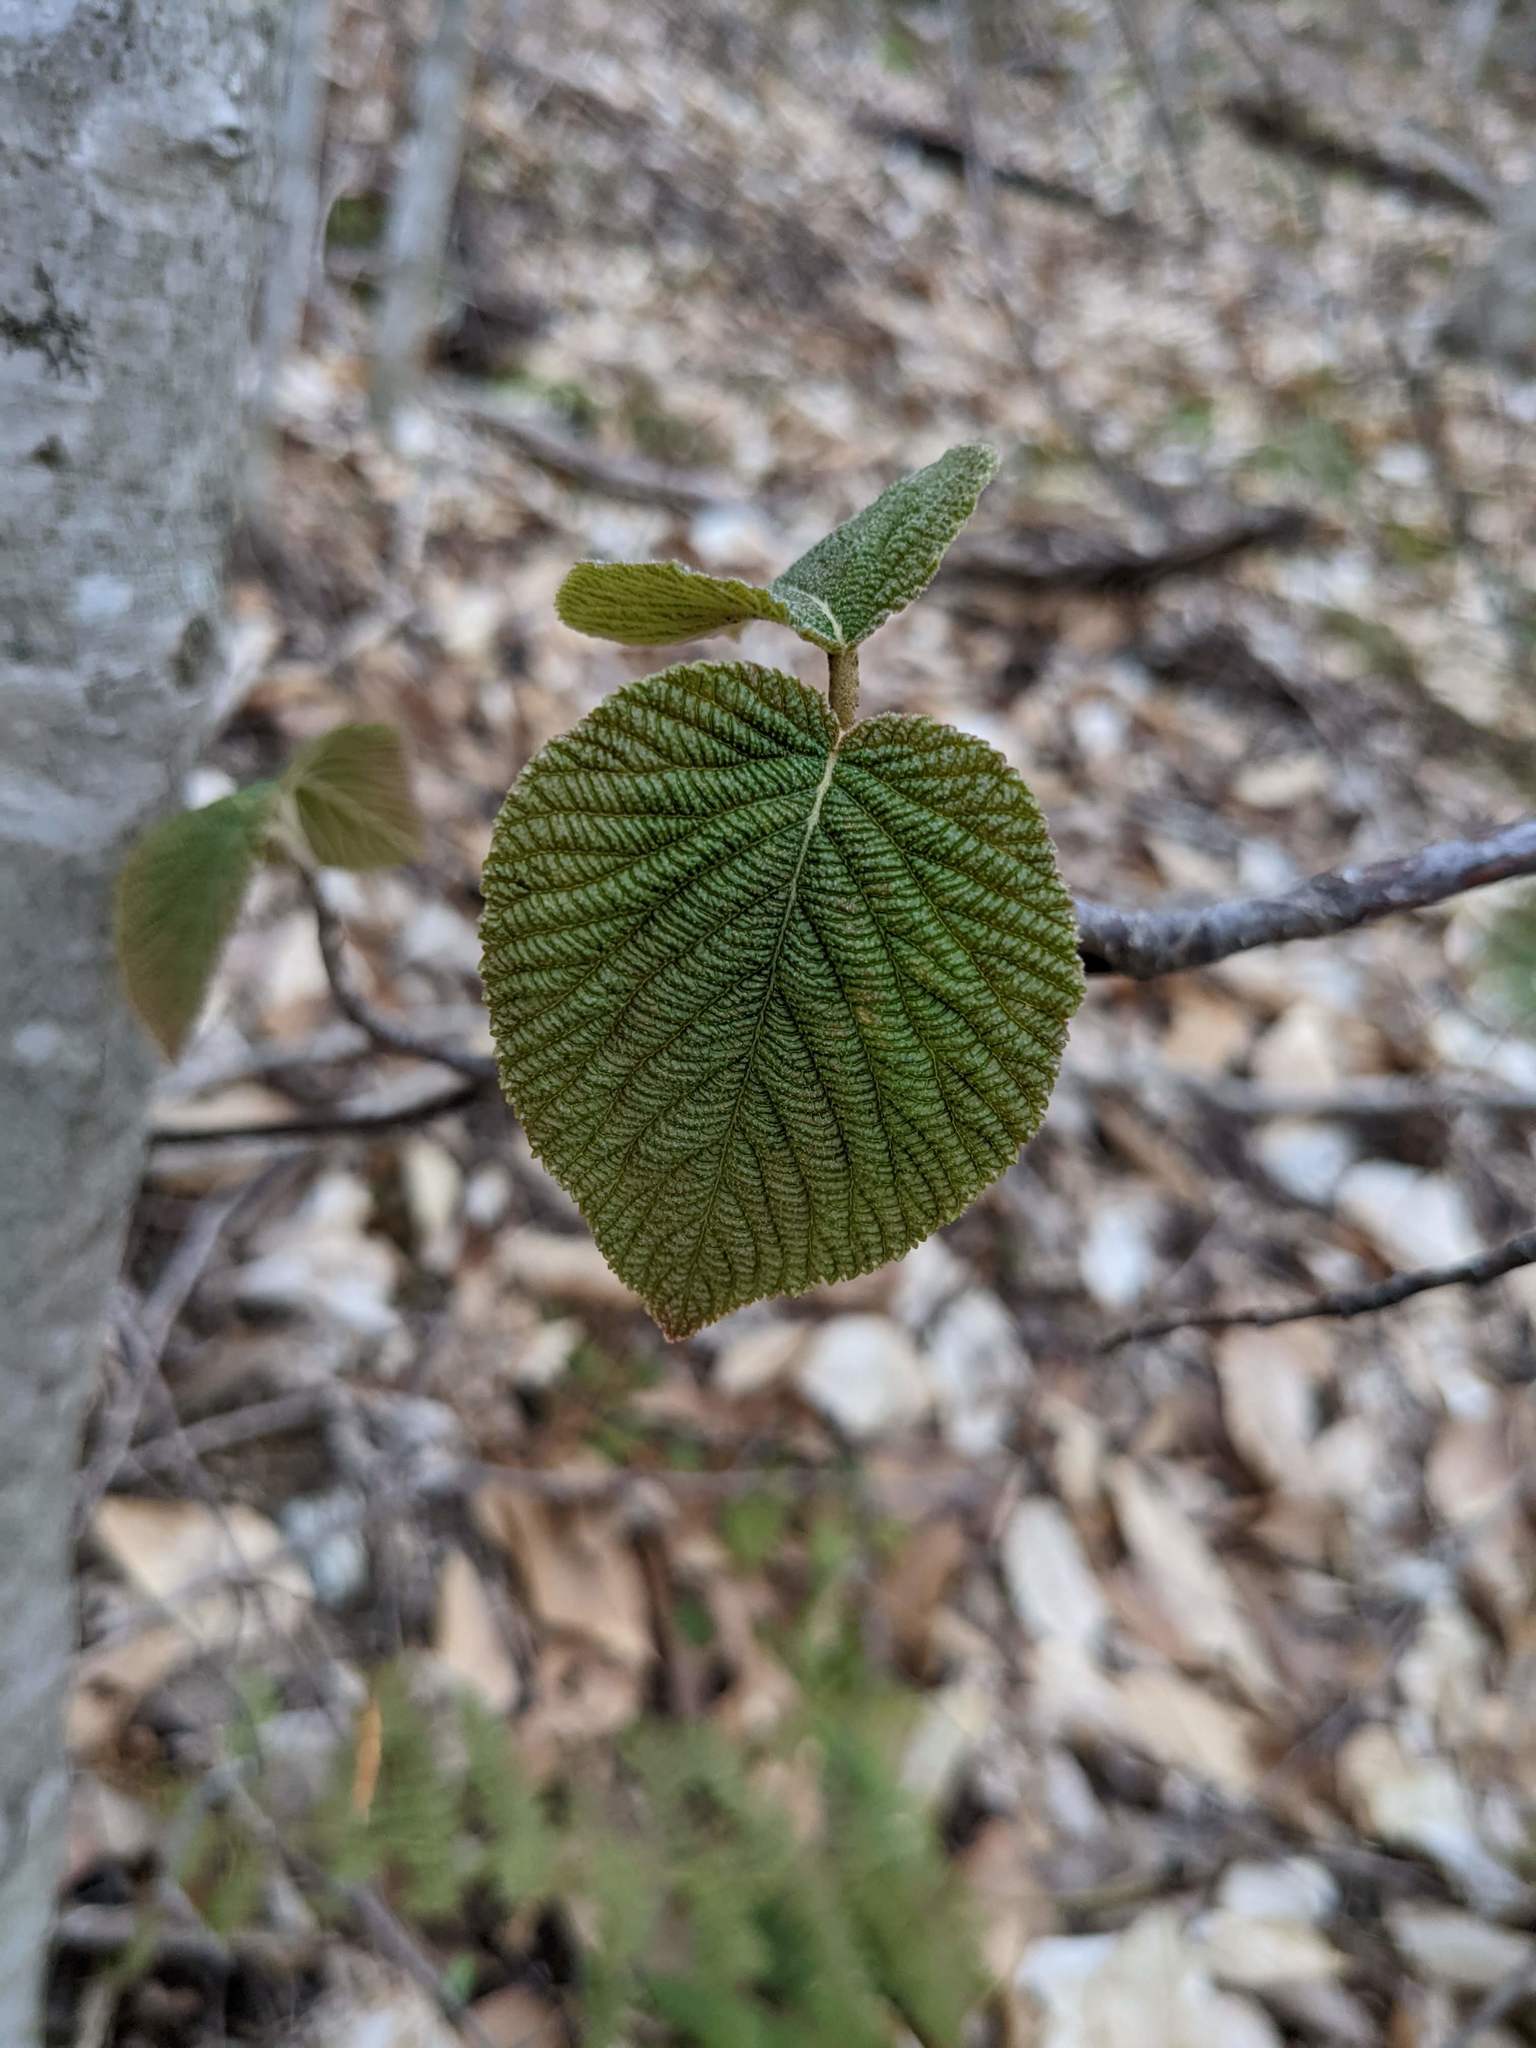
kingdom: Plantae
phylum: Tracheophyta
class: Magnoliopsida
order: Dipsacales
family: Viburnaceae
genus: Viburnum
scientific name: Viburnum lantanoides
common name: Hobblebush
